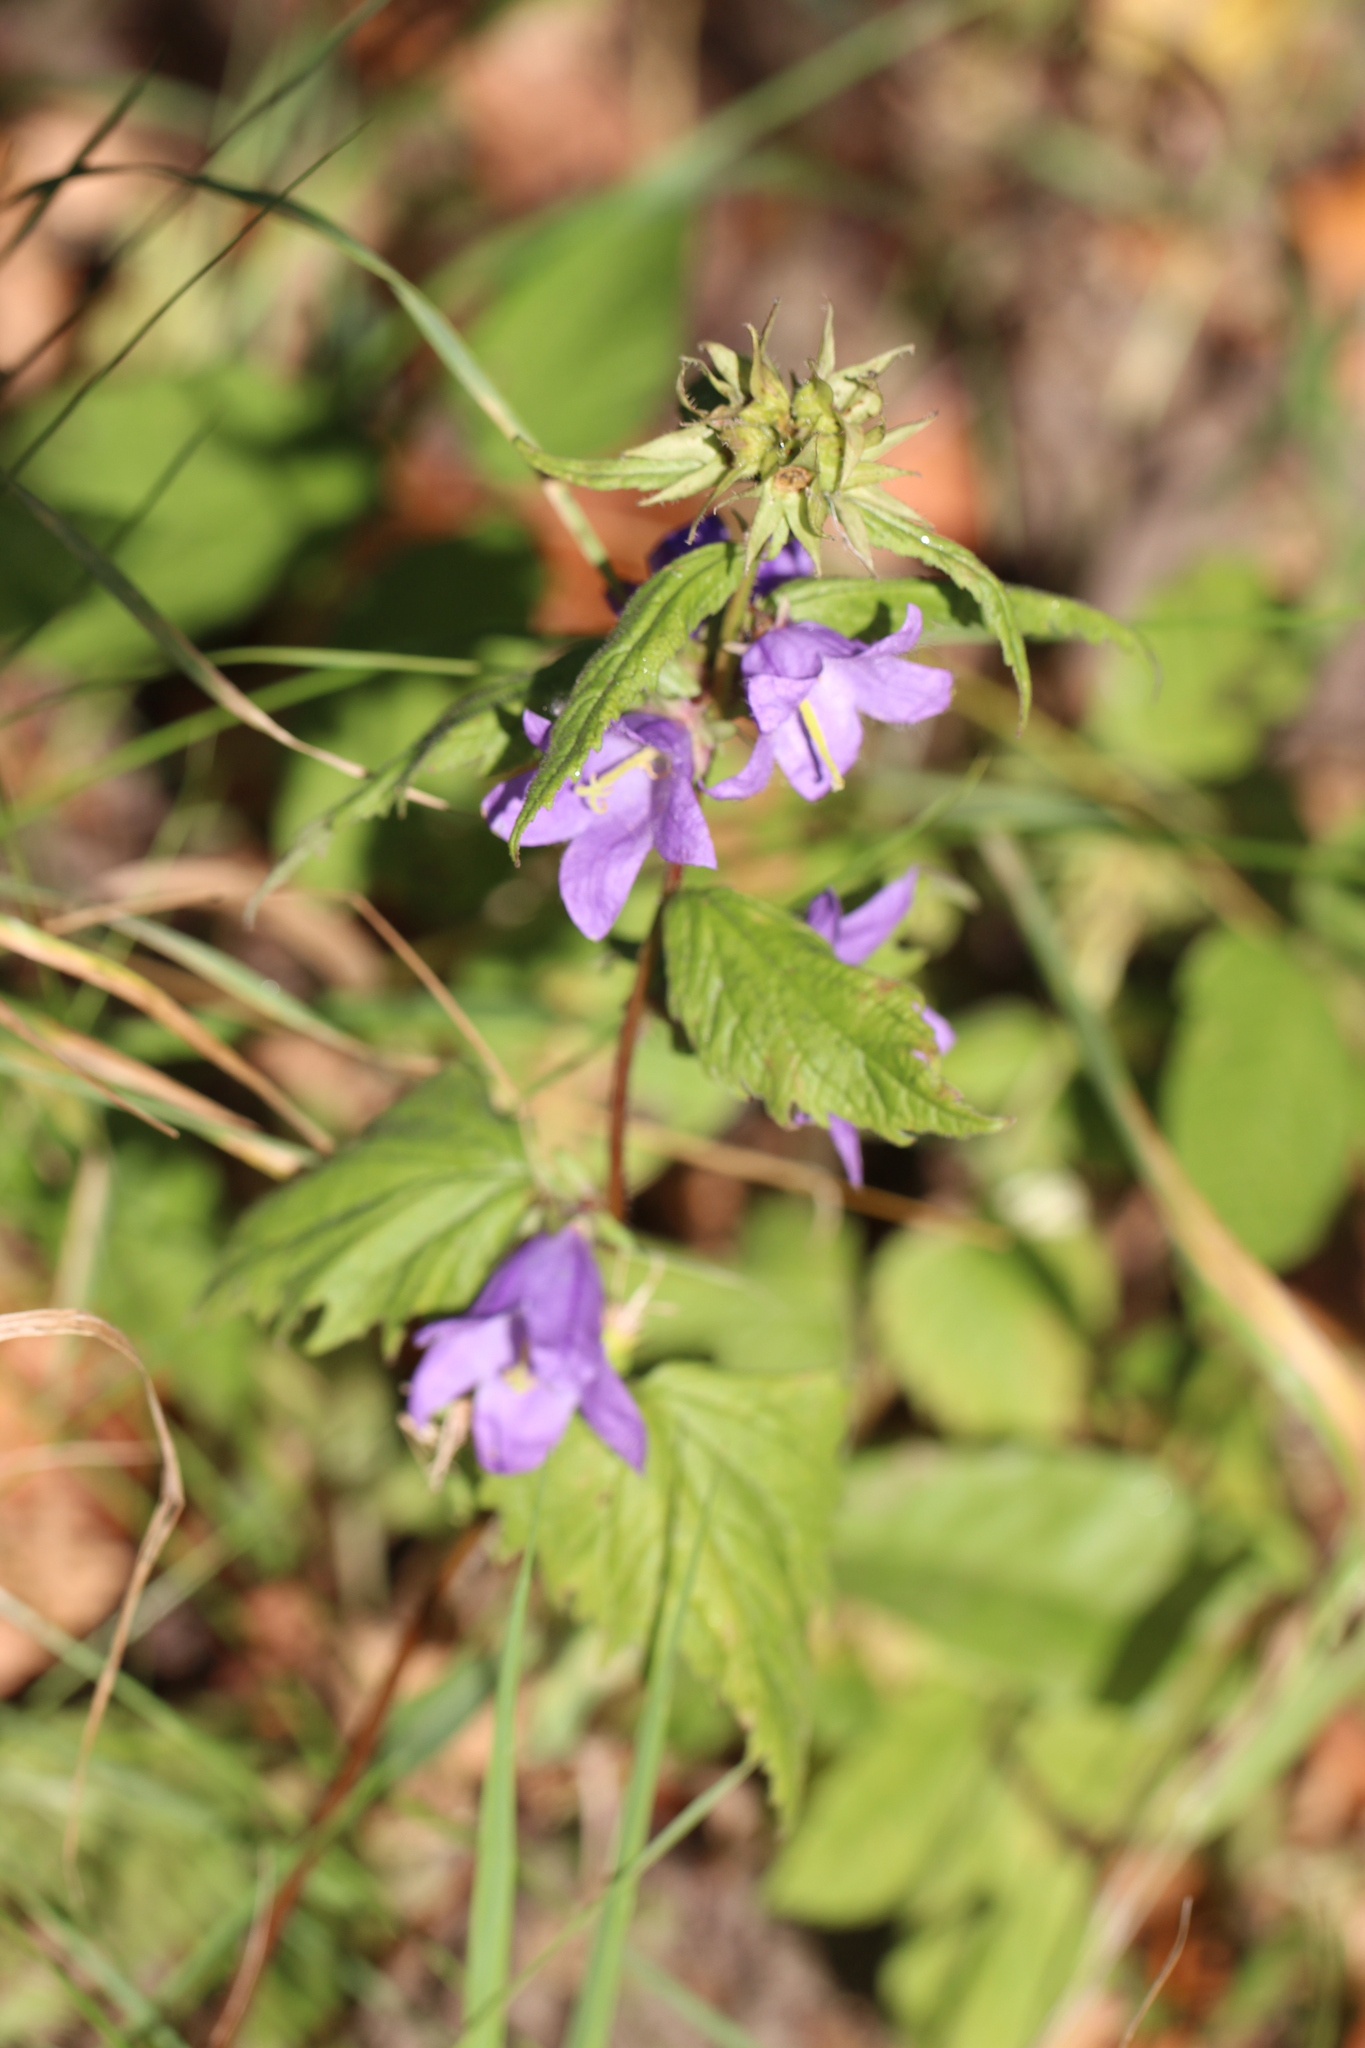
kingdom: Plantae
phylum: Tracheophyta
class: Magnoliopsida
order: Asterales
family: Campanulaceae
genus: Campanula
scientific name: Campanula trachelium
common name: Nettle-leaved bellflower
